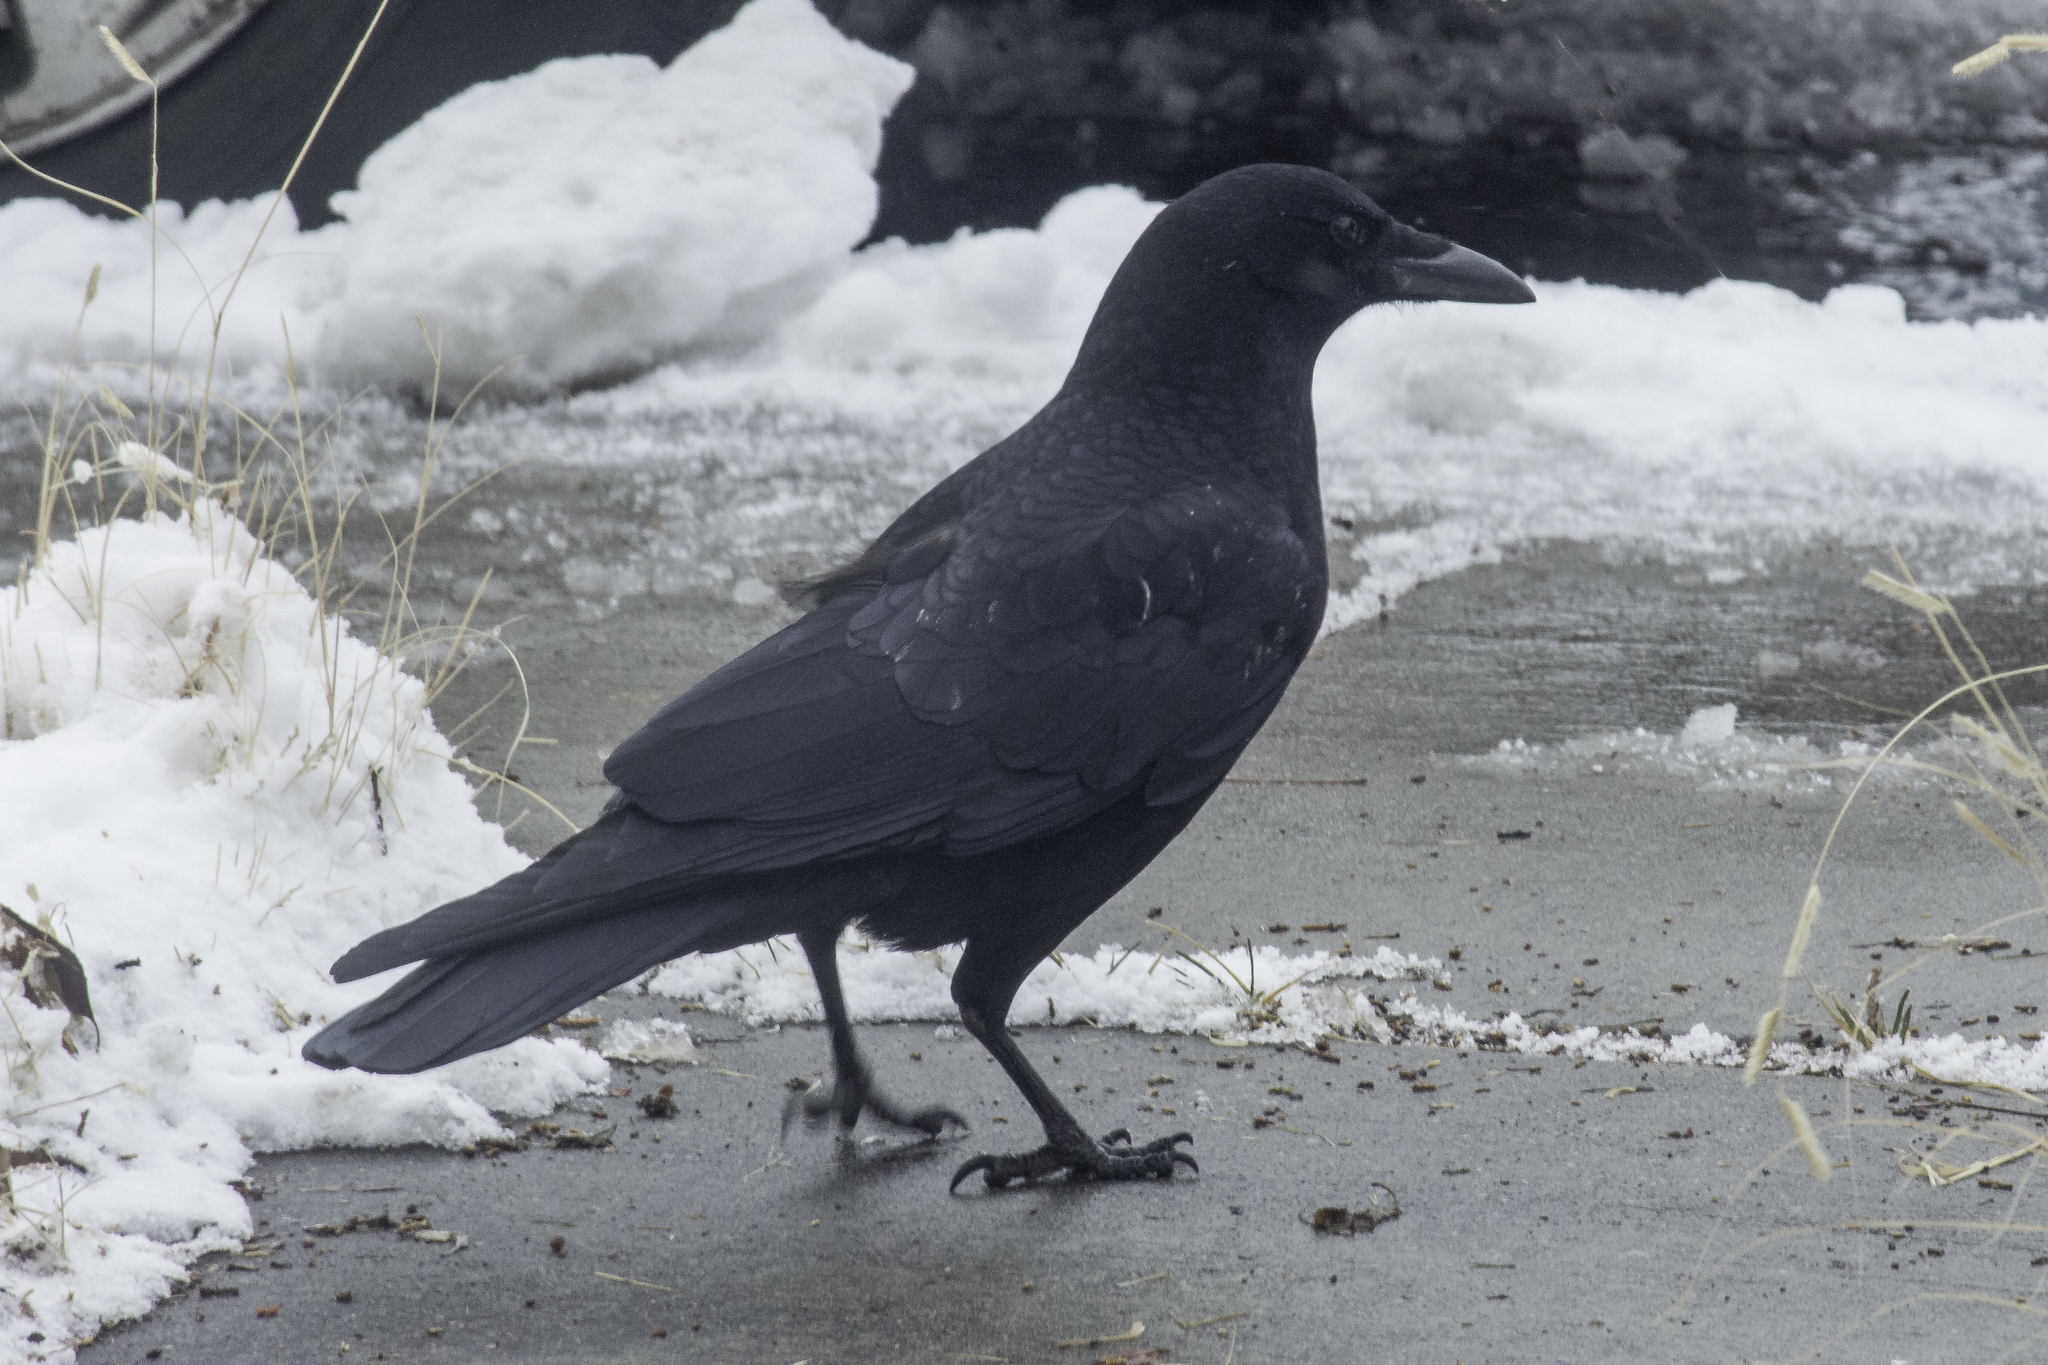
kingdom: Animalia
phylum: Chordata
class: Aves
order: Passeriformes
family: Corvidae
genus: Corvus
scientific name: Corvus corax
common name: Common raven
